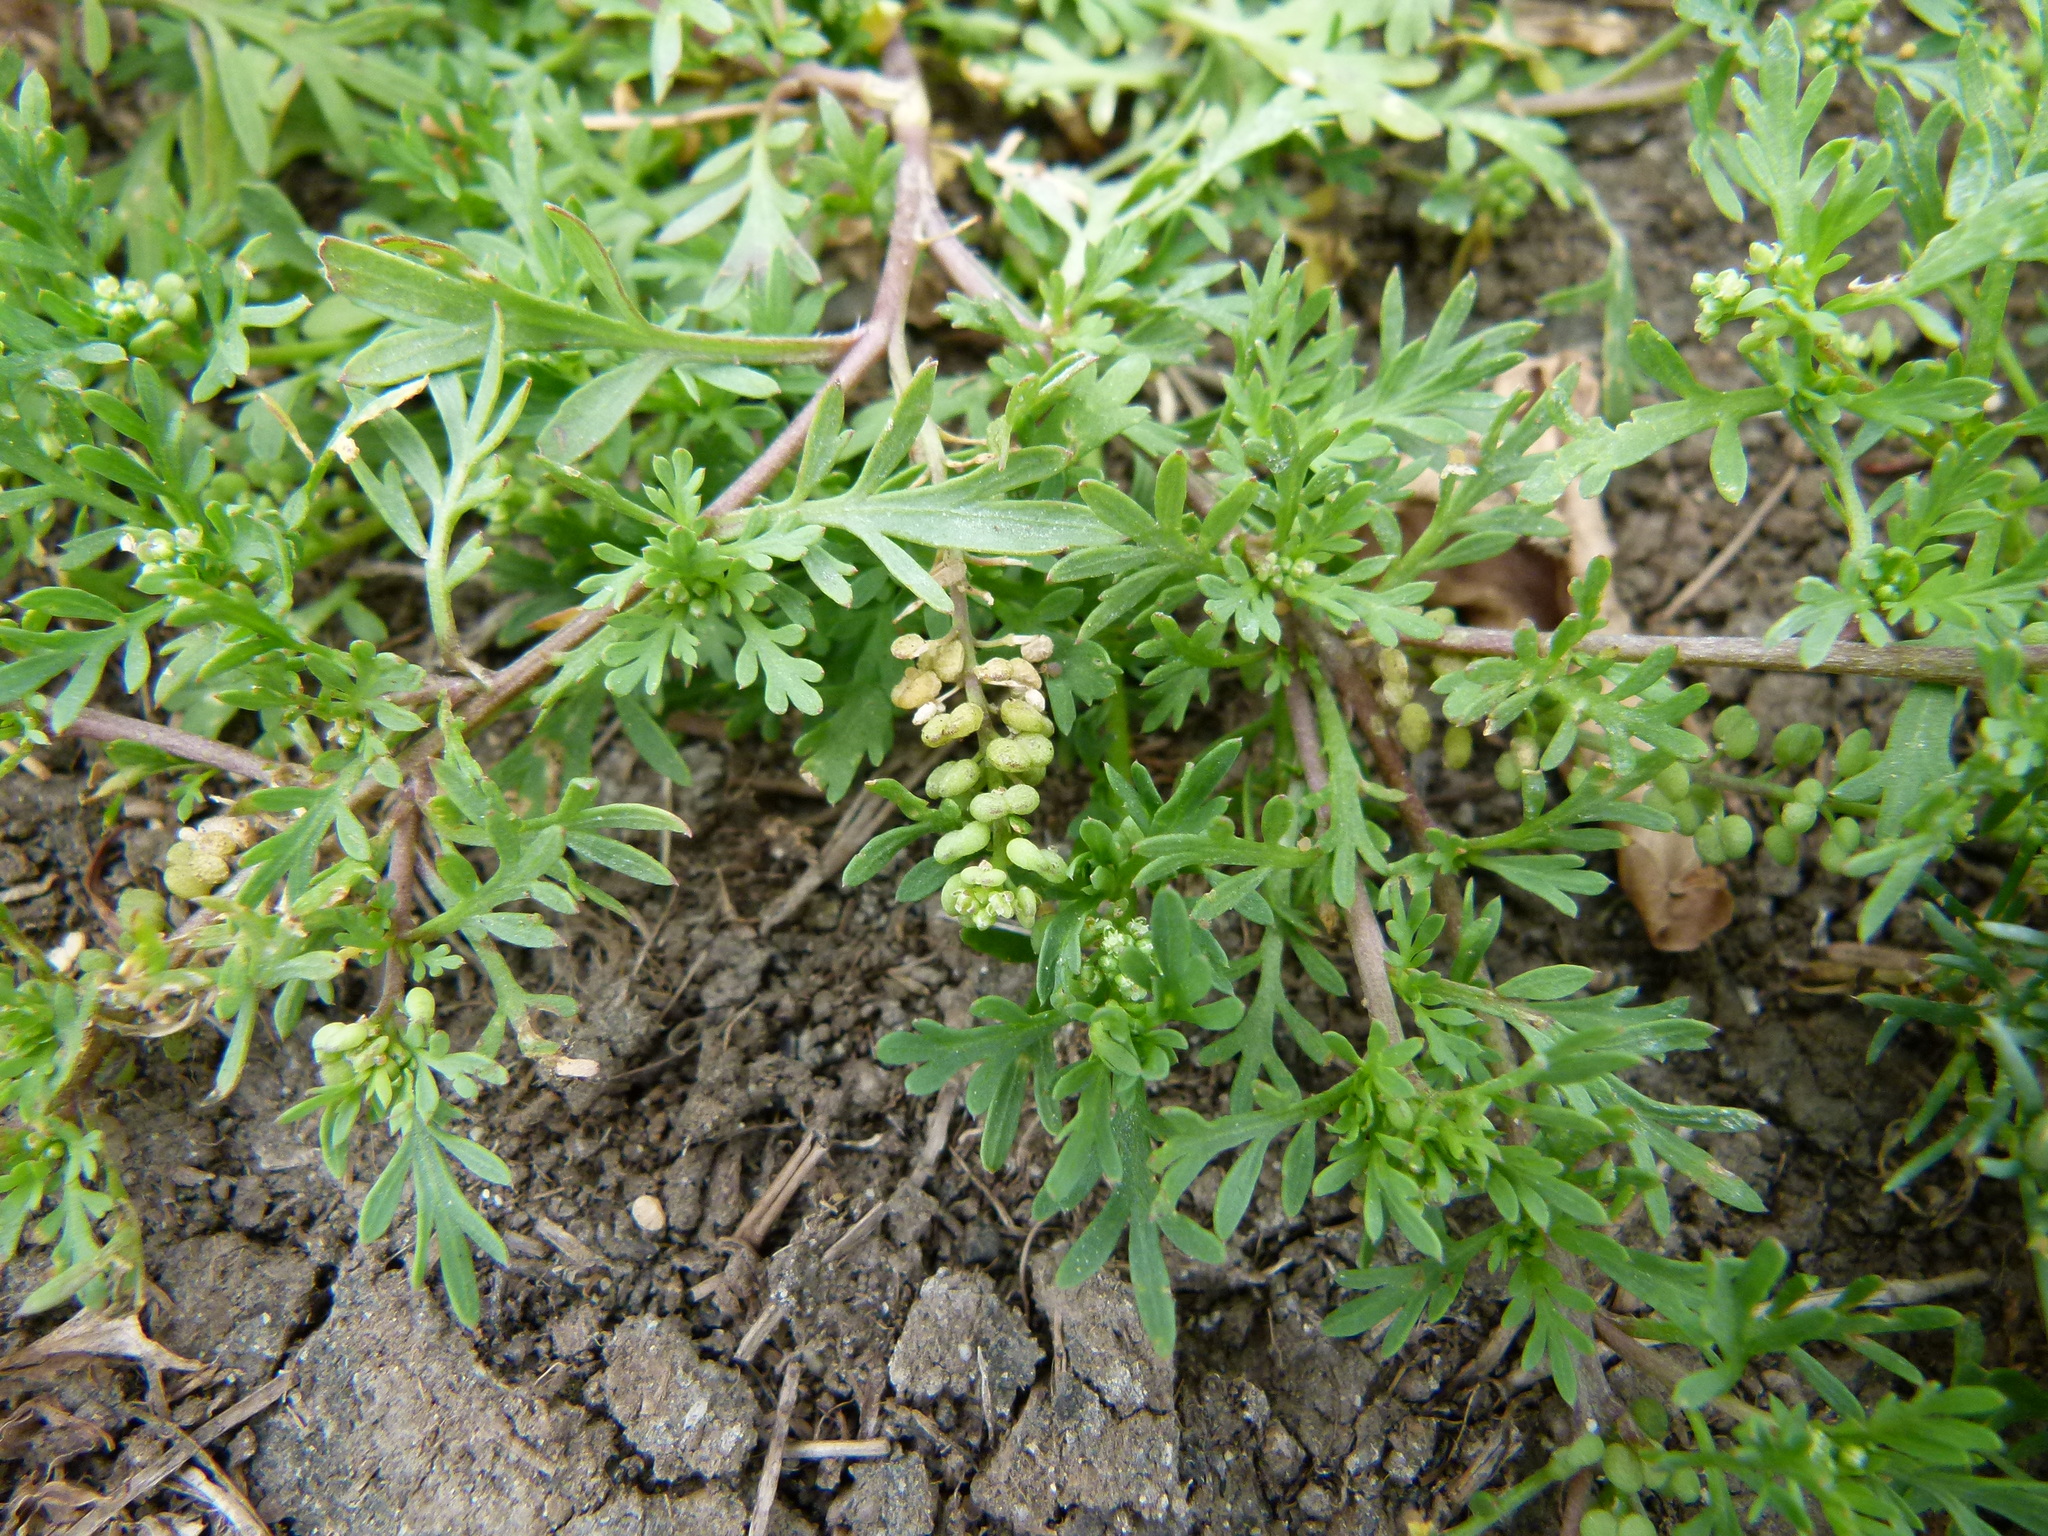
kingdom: Plantae
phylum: Tracheophyta
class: Magnoliopsida
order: Brassicales
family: Brassicaceae
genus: Lepidium
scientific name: Lepidium didymum
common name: Lesser swinecress
